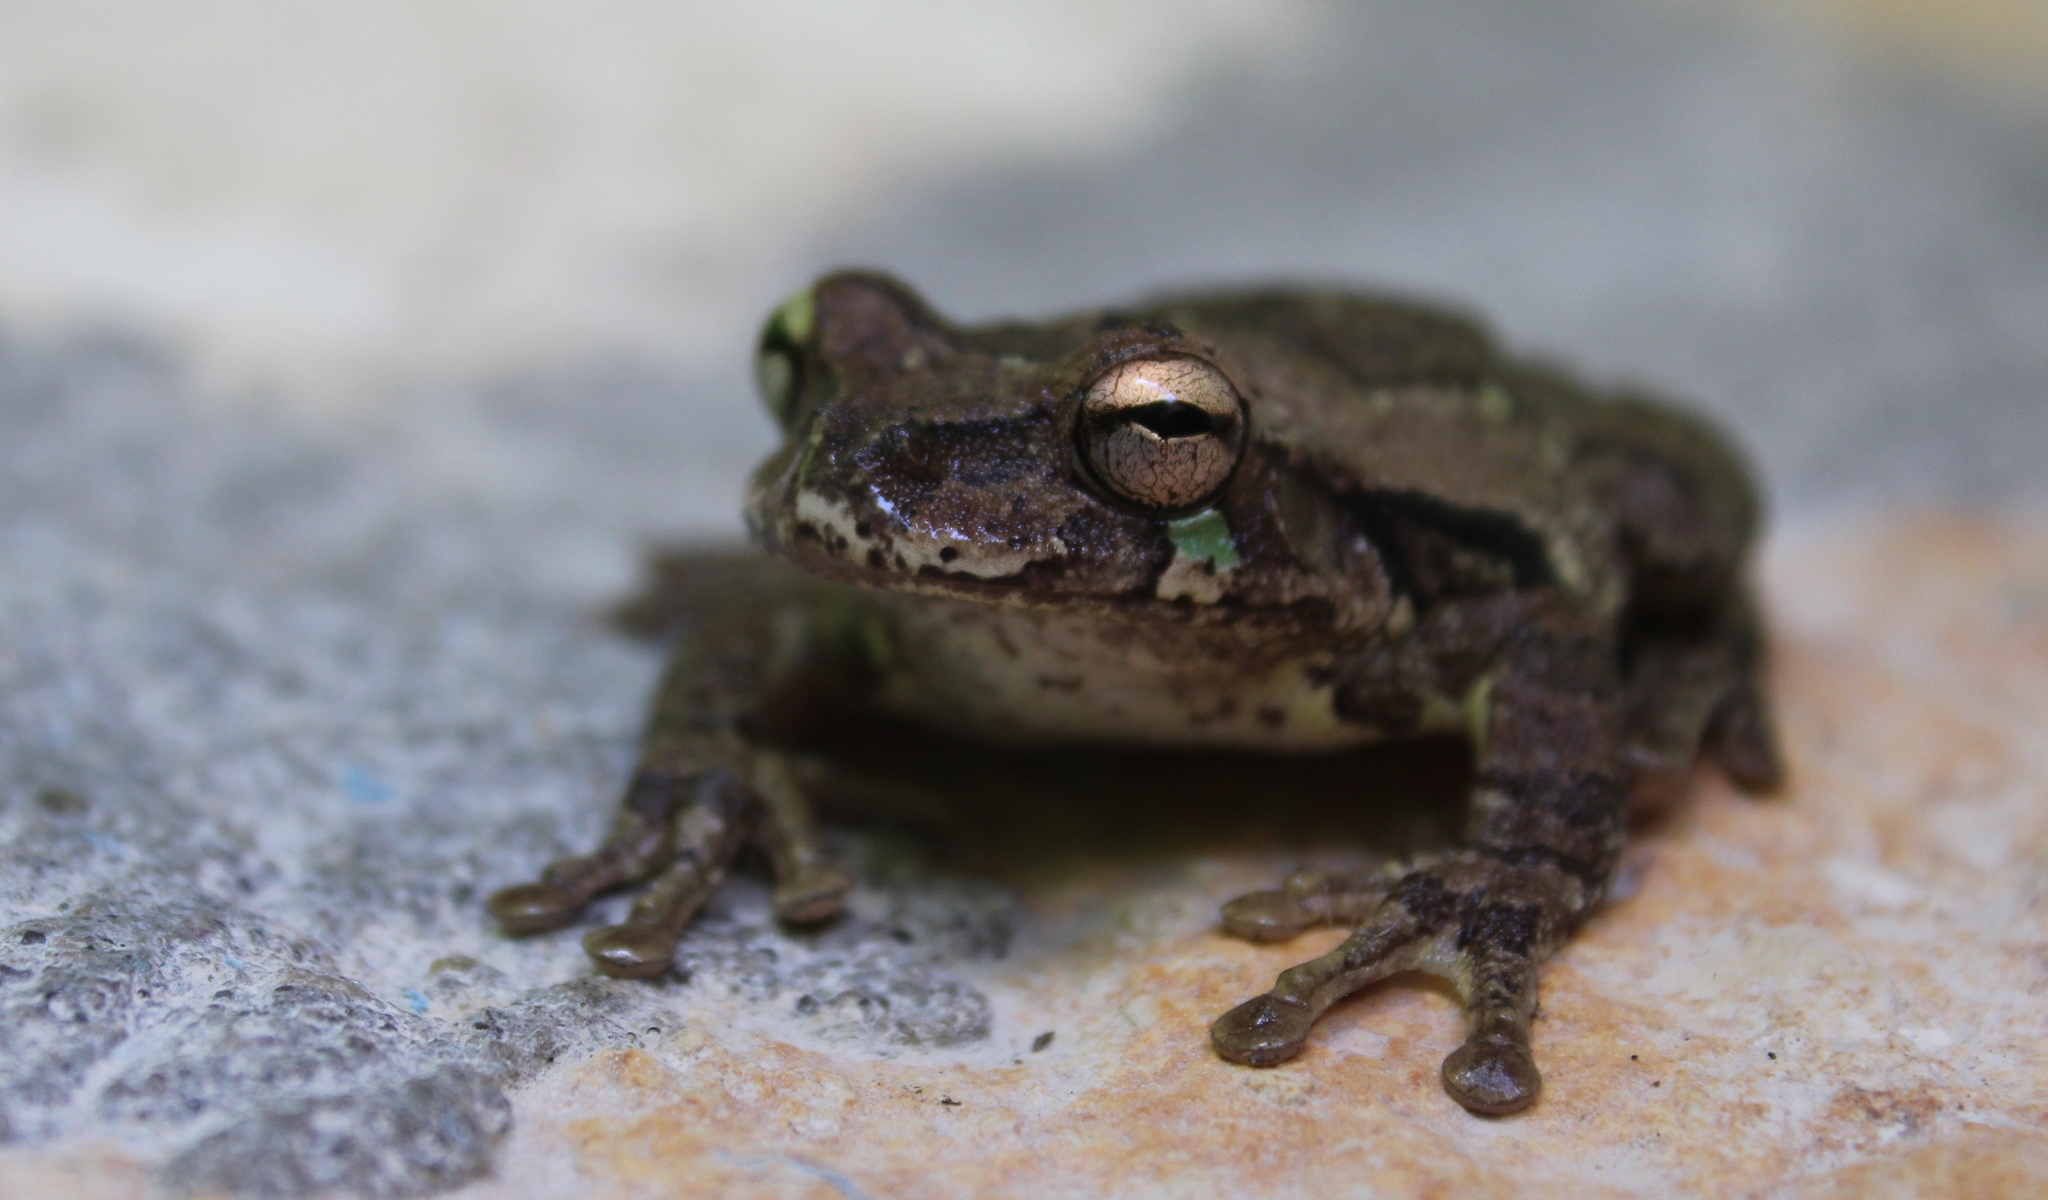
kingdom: Animalia
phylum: Chordata
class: Amphibia
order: Anura
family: Hylidae
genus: Smilisca
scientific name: Smilisca baudinii
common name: Mexican smilisca
